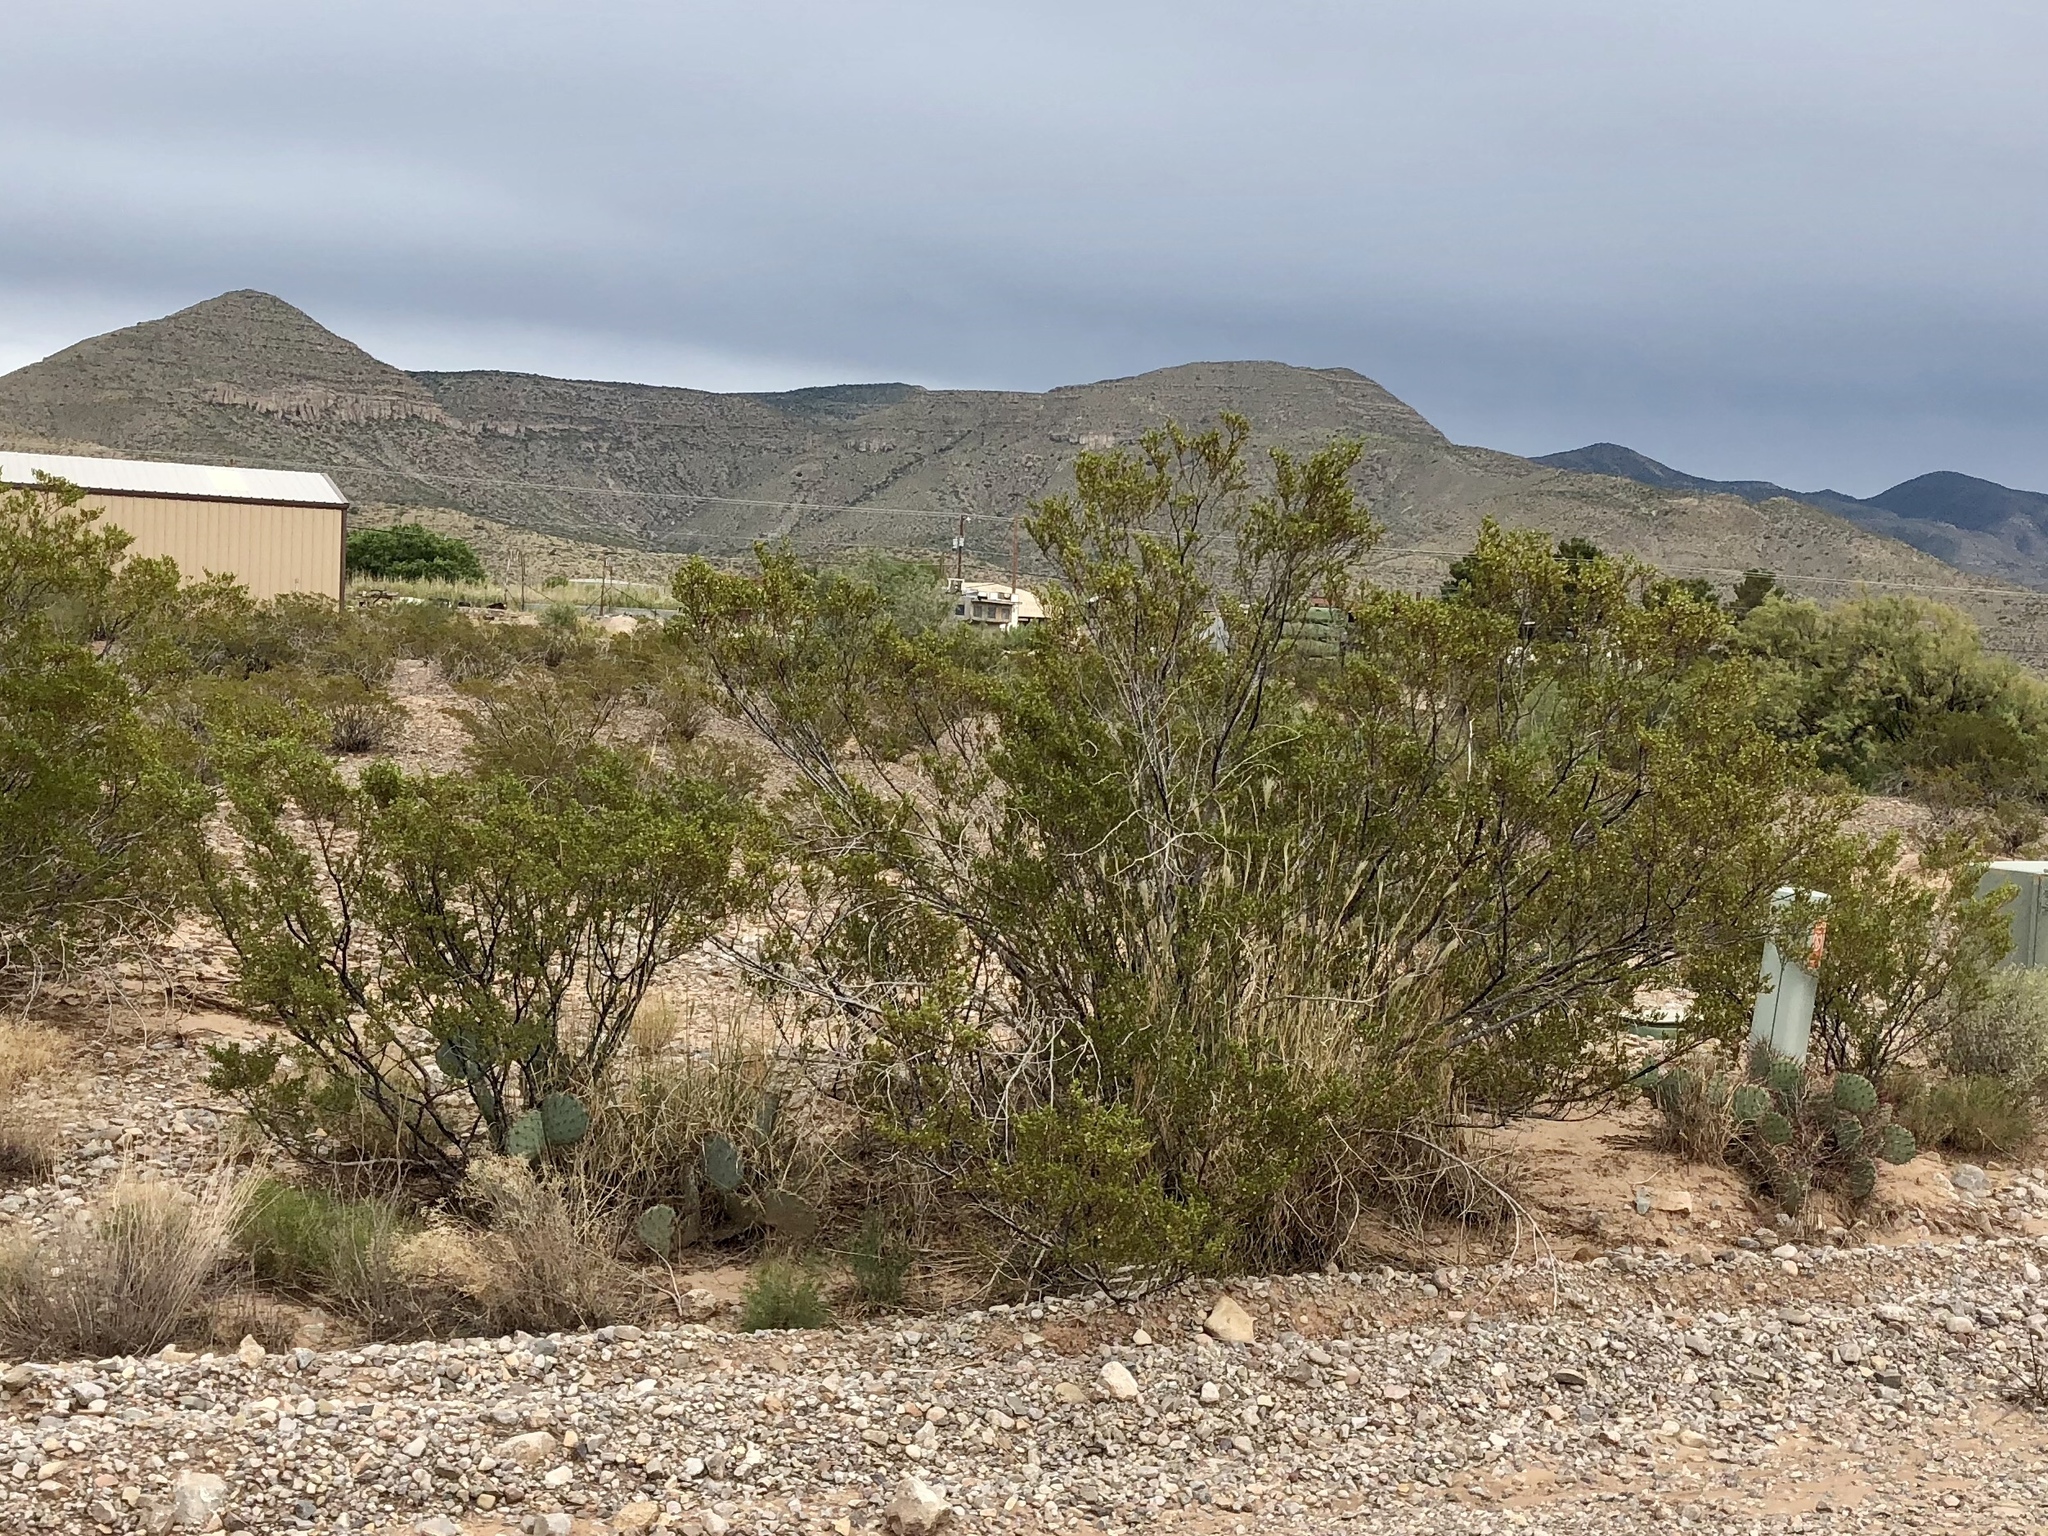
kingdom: Plantae
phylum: Tracheophyta
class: Magnoliopsida
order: Zygophyllales
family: Zygophyllaceae
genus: Larrea
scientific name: Larrea tridentata
